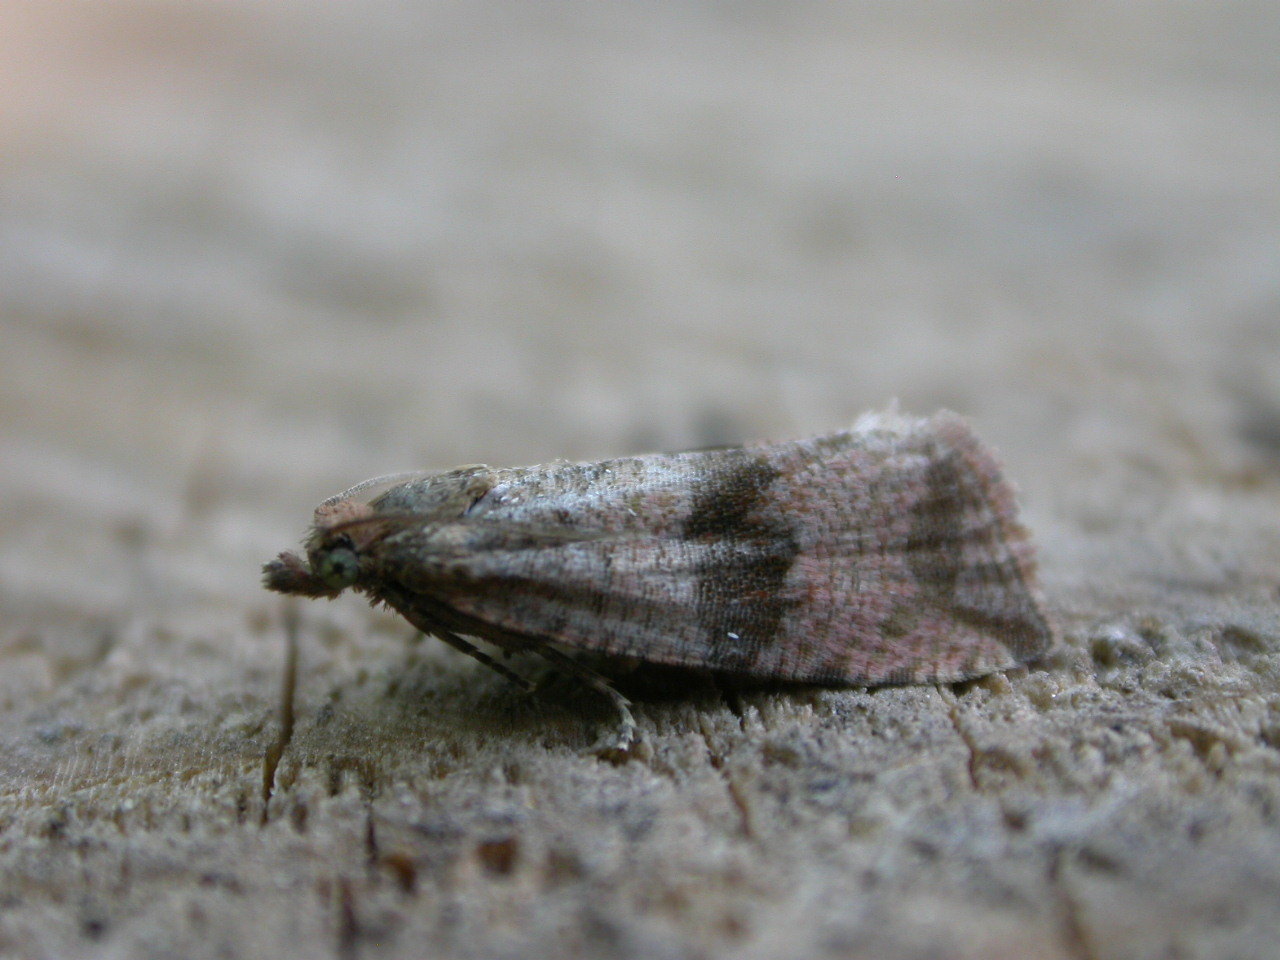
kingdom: Animalia
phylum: Arthropoda
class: Insecta
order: Lepidoptera
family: Tortricidae
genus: Celypha
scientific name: Celypha striana
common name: Barred marble
